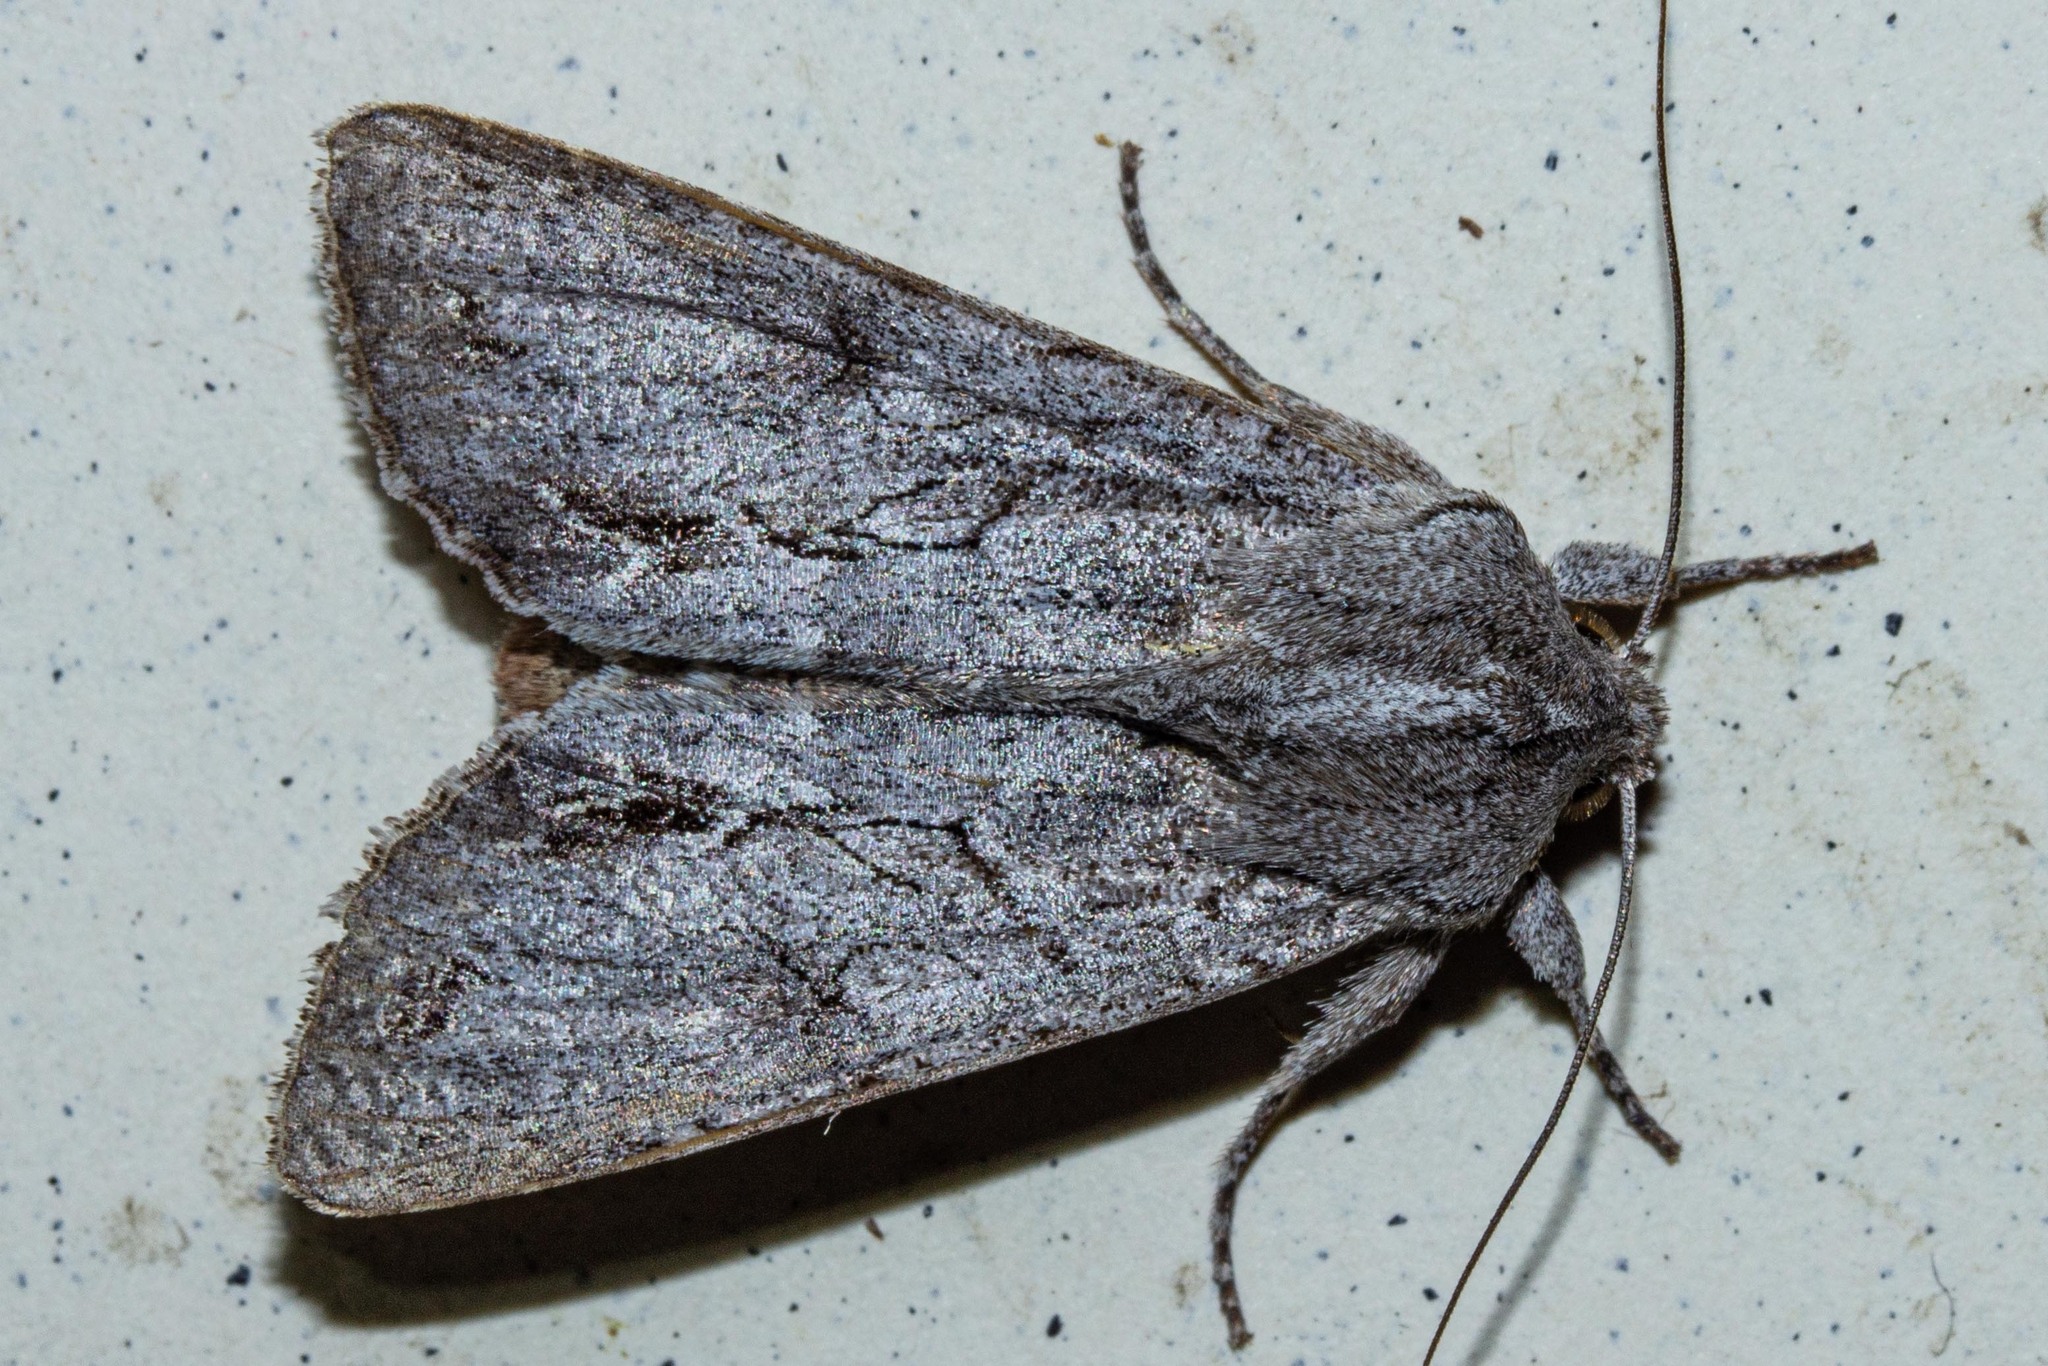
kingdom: Animalia
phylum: Arthropoda
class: Insecta
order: Lepidoptera
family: Noctuidae
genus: Ichneutica
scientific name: Ichneutica
